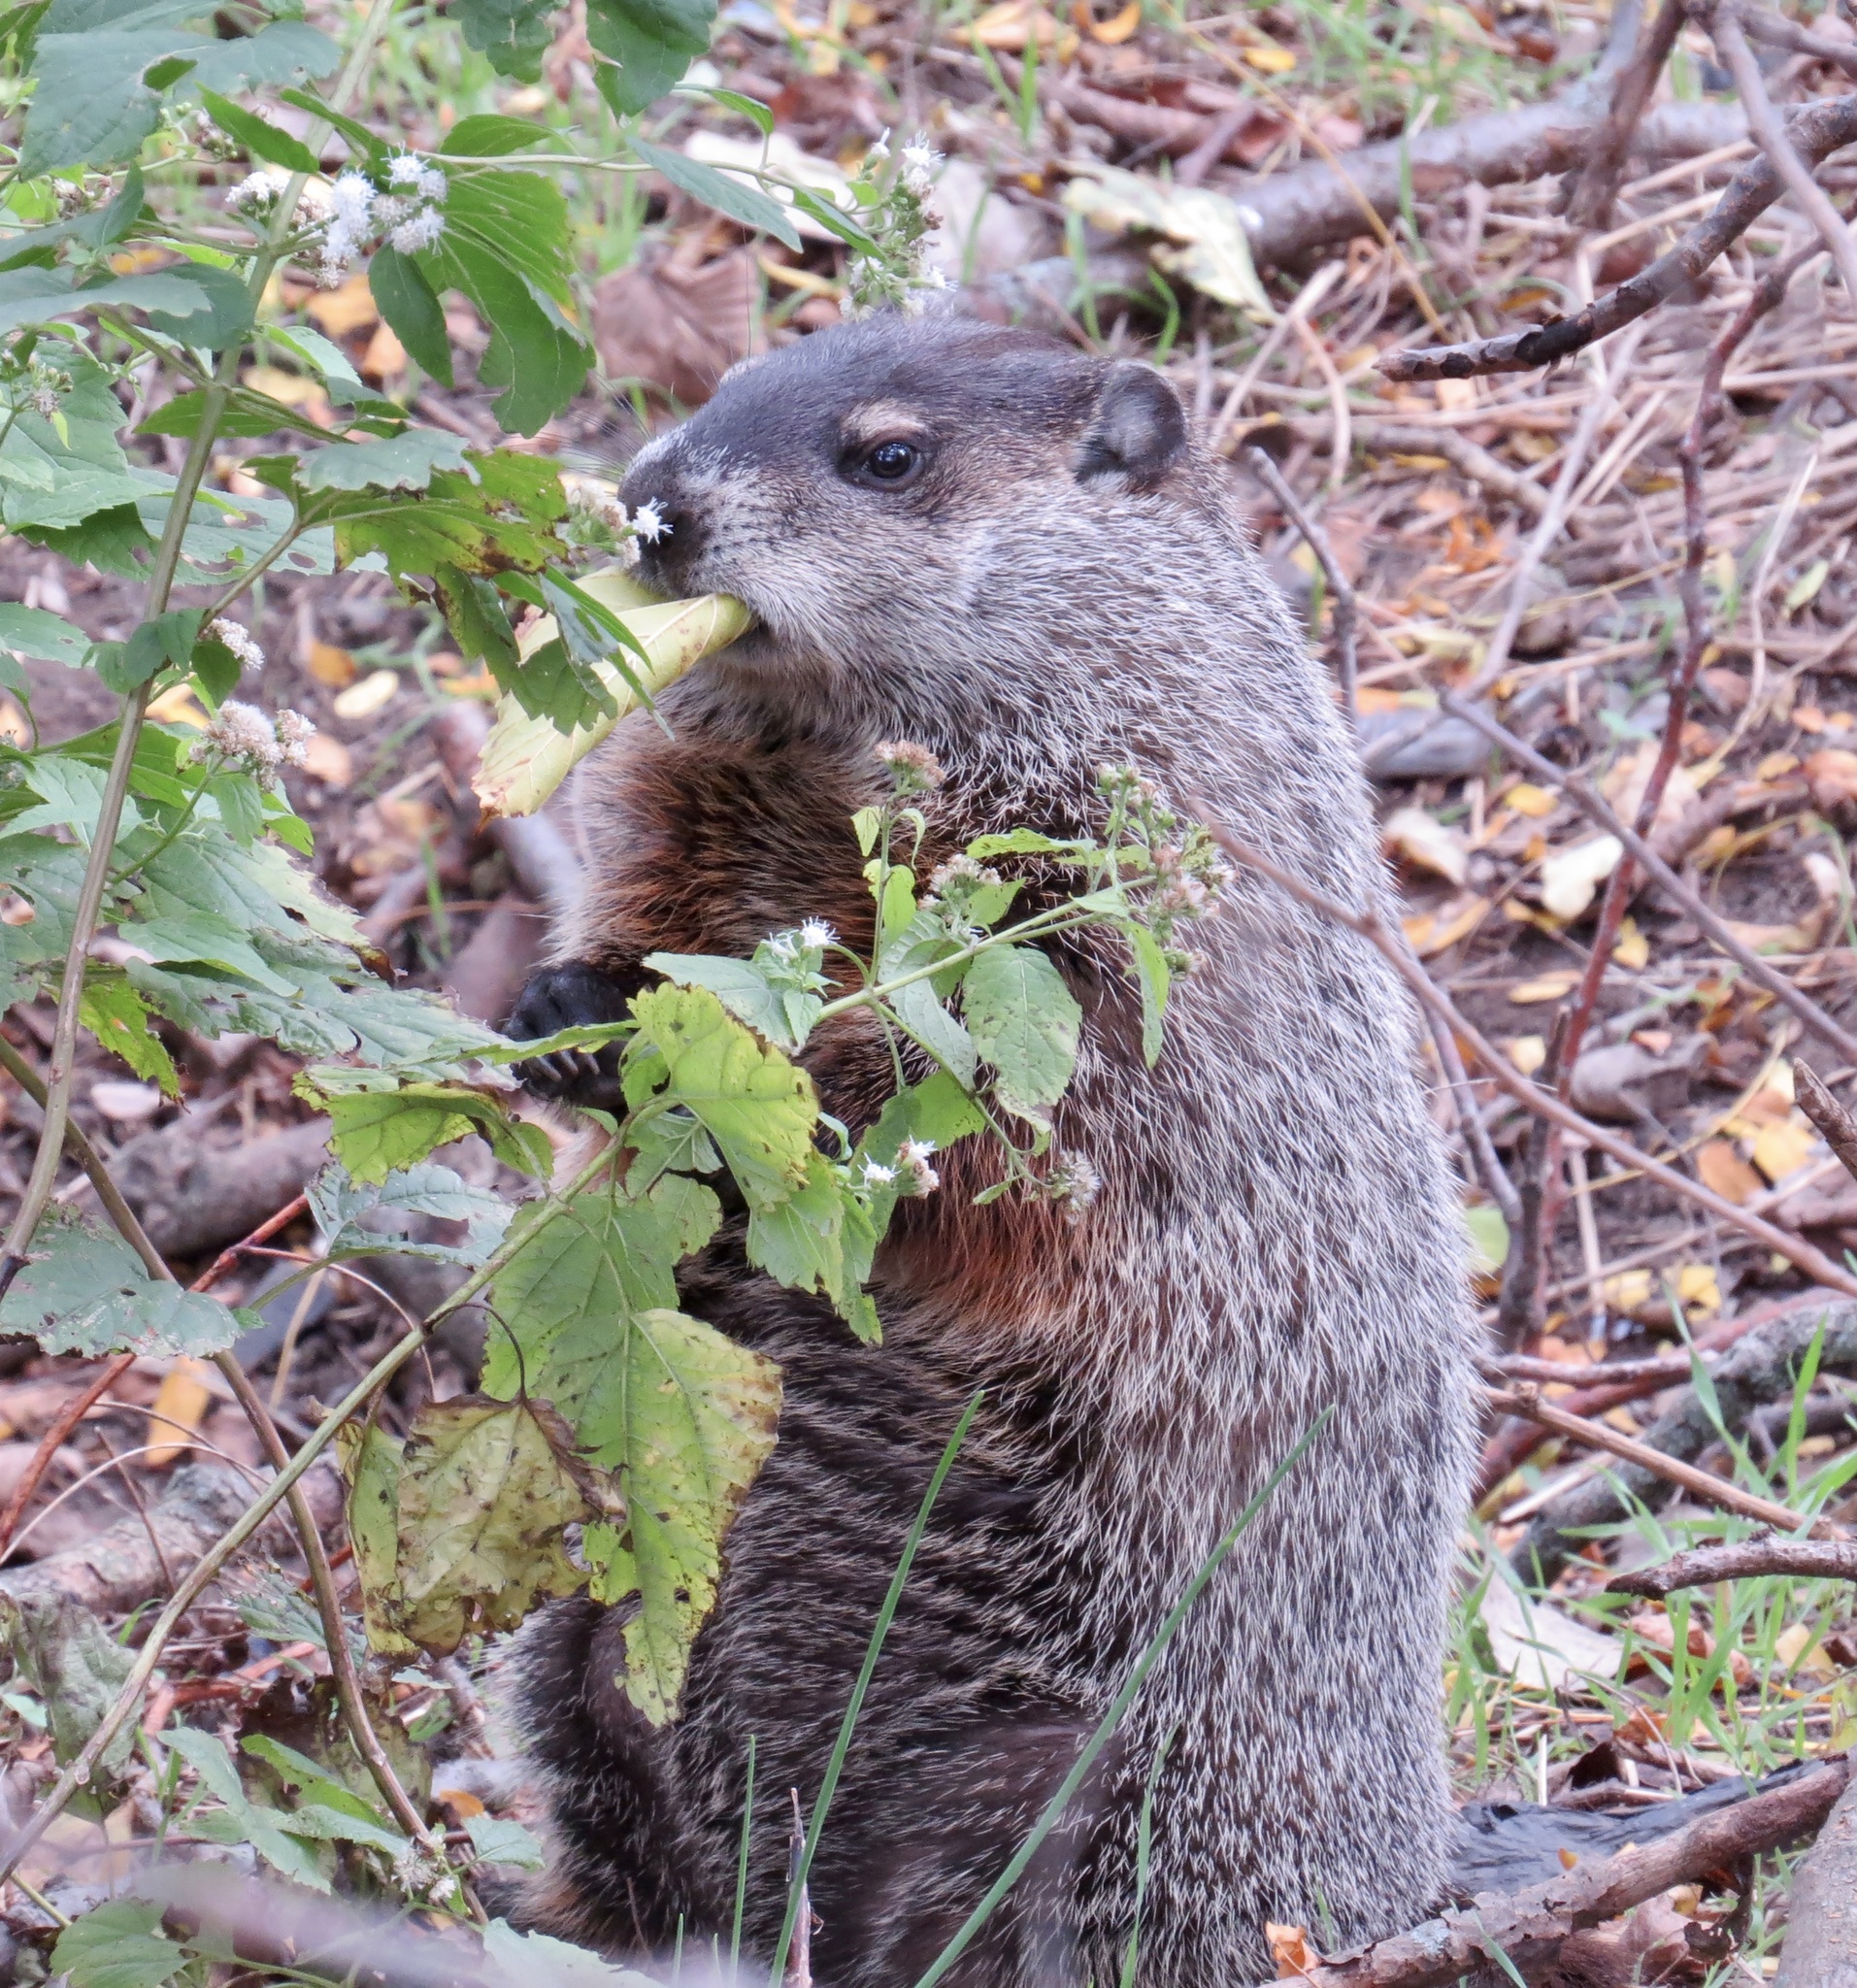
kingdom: Animalia
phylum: Chordata
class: Mammalia
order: Rodentia
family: Sciuridae
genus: Marmota
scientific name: Marmota monax
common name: Groundhog
